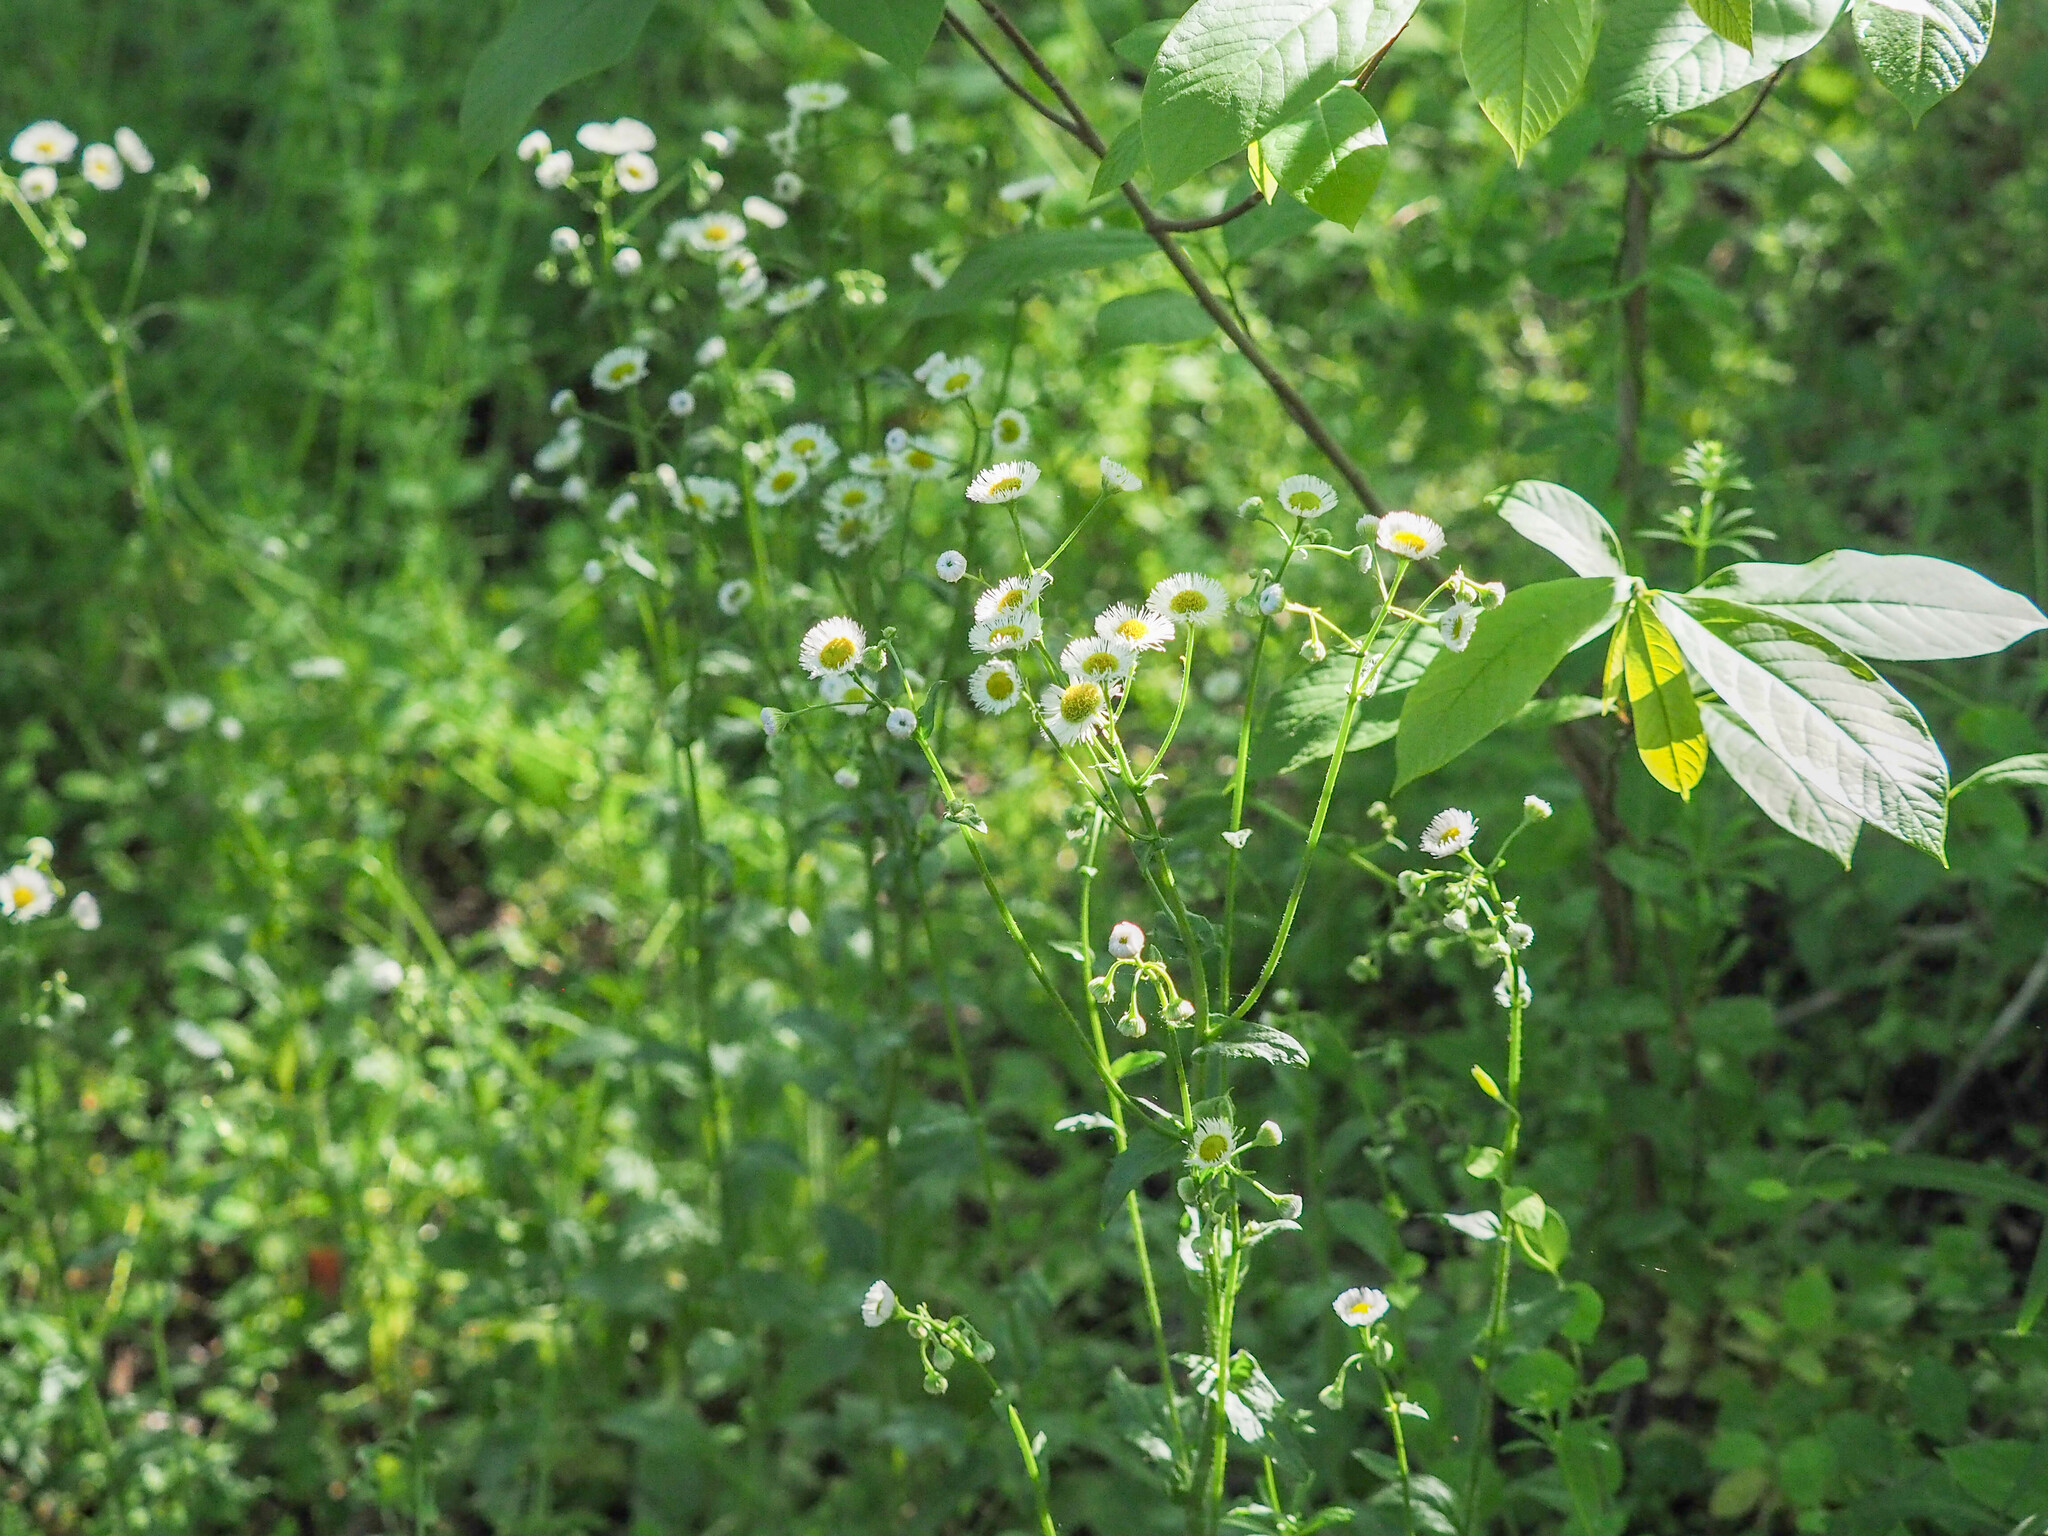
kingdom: Plantae
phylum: Tracheophyta
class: Magnoliopsida
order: Asterales
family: Asteraceae
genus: Erigeron
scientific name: Erigeron philadelphicus
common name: Robin's-plantain
